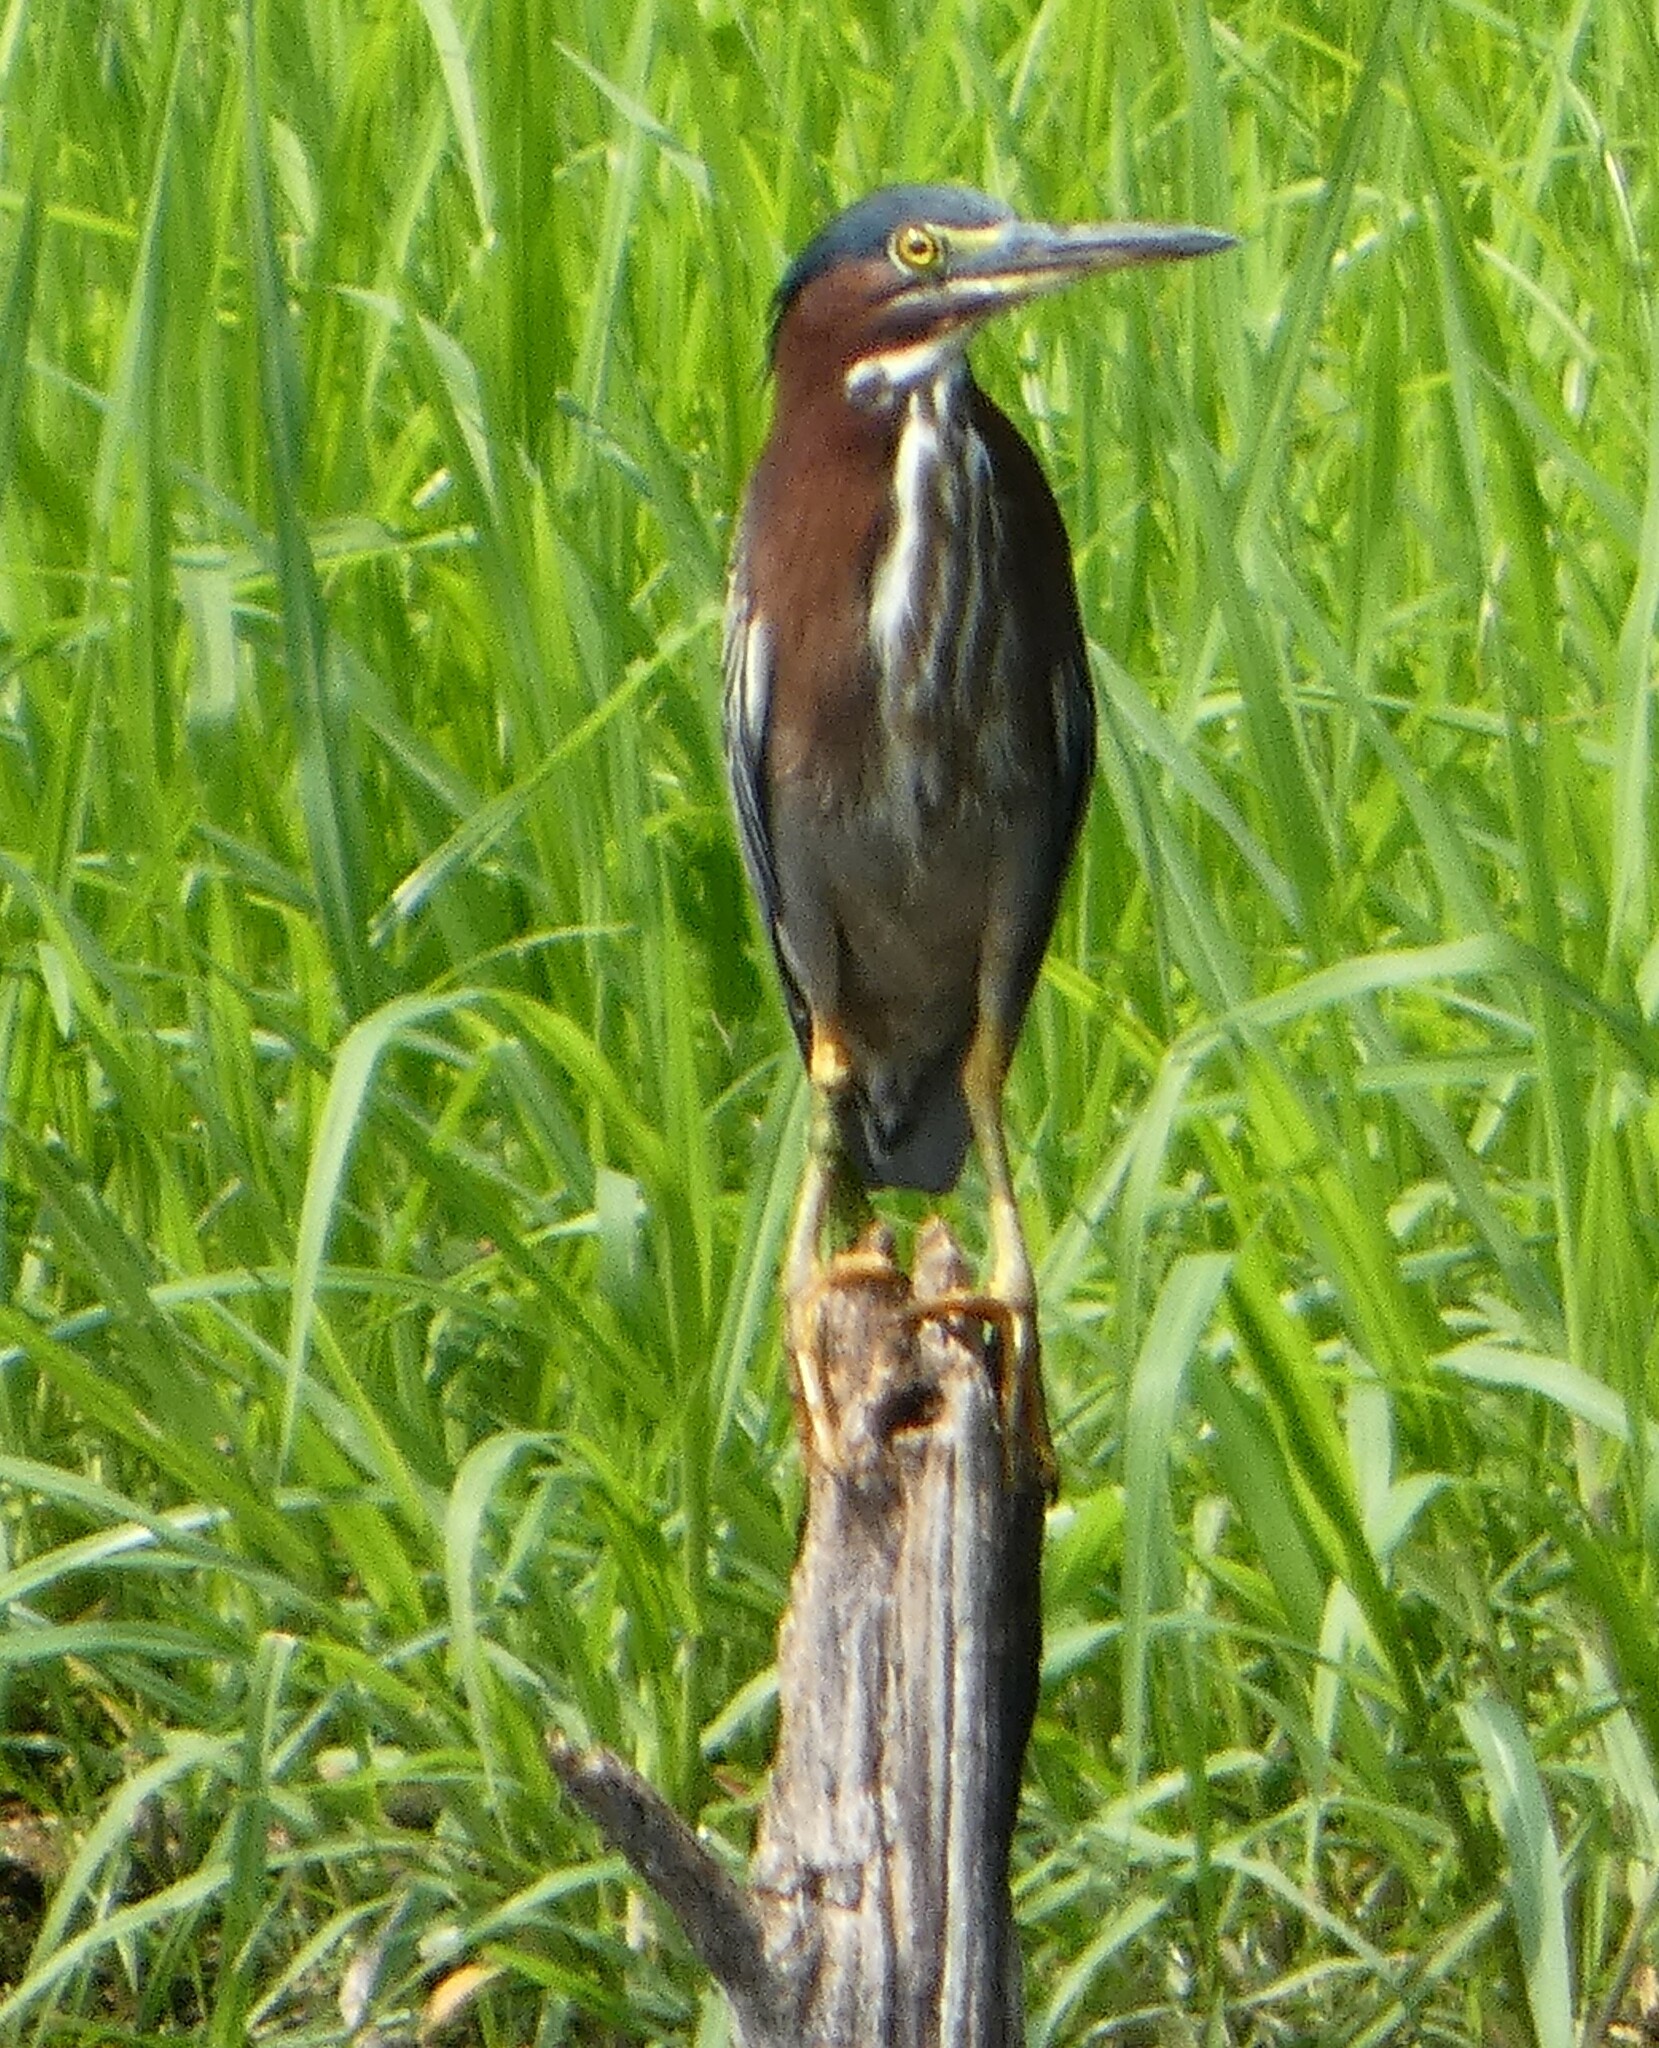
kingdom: Animalia
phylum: Chordata
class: Aves
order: Pelecaniformes
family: Ardeidae
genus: Butorides
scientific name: Butorides virescens
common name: Green heron
